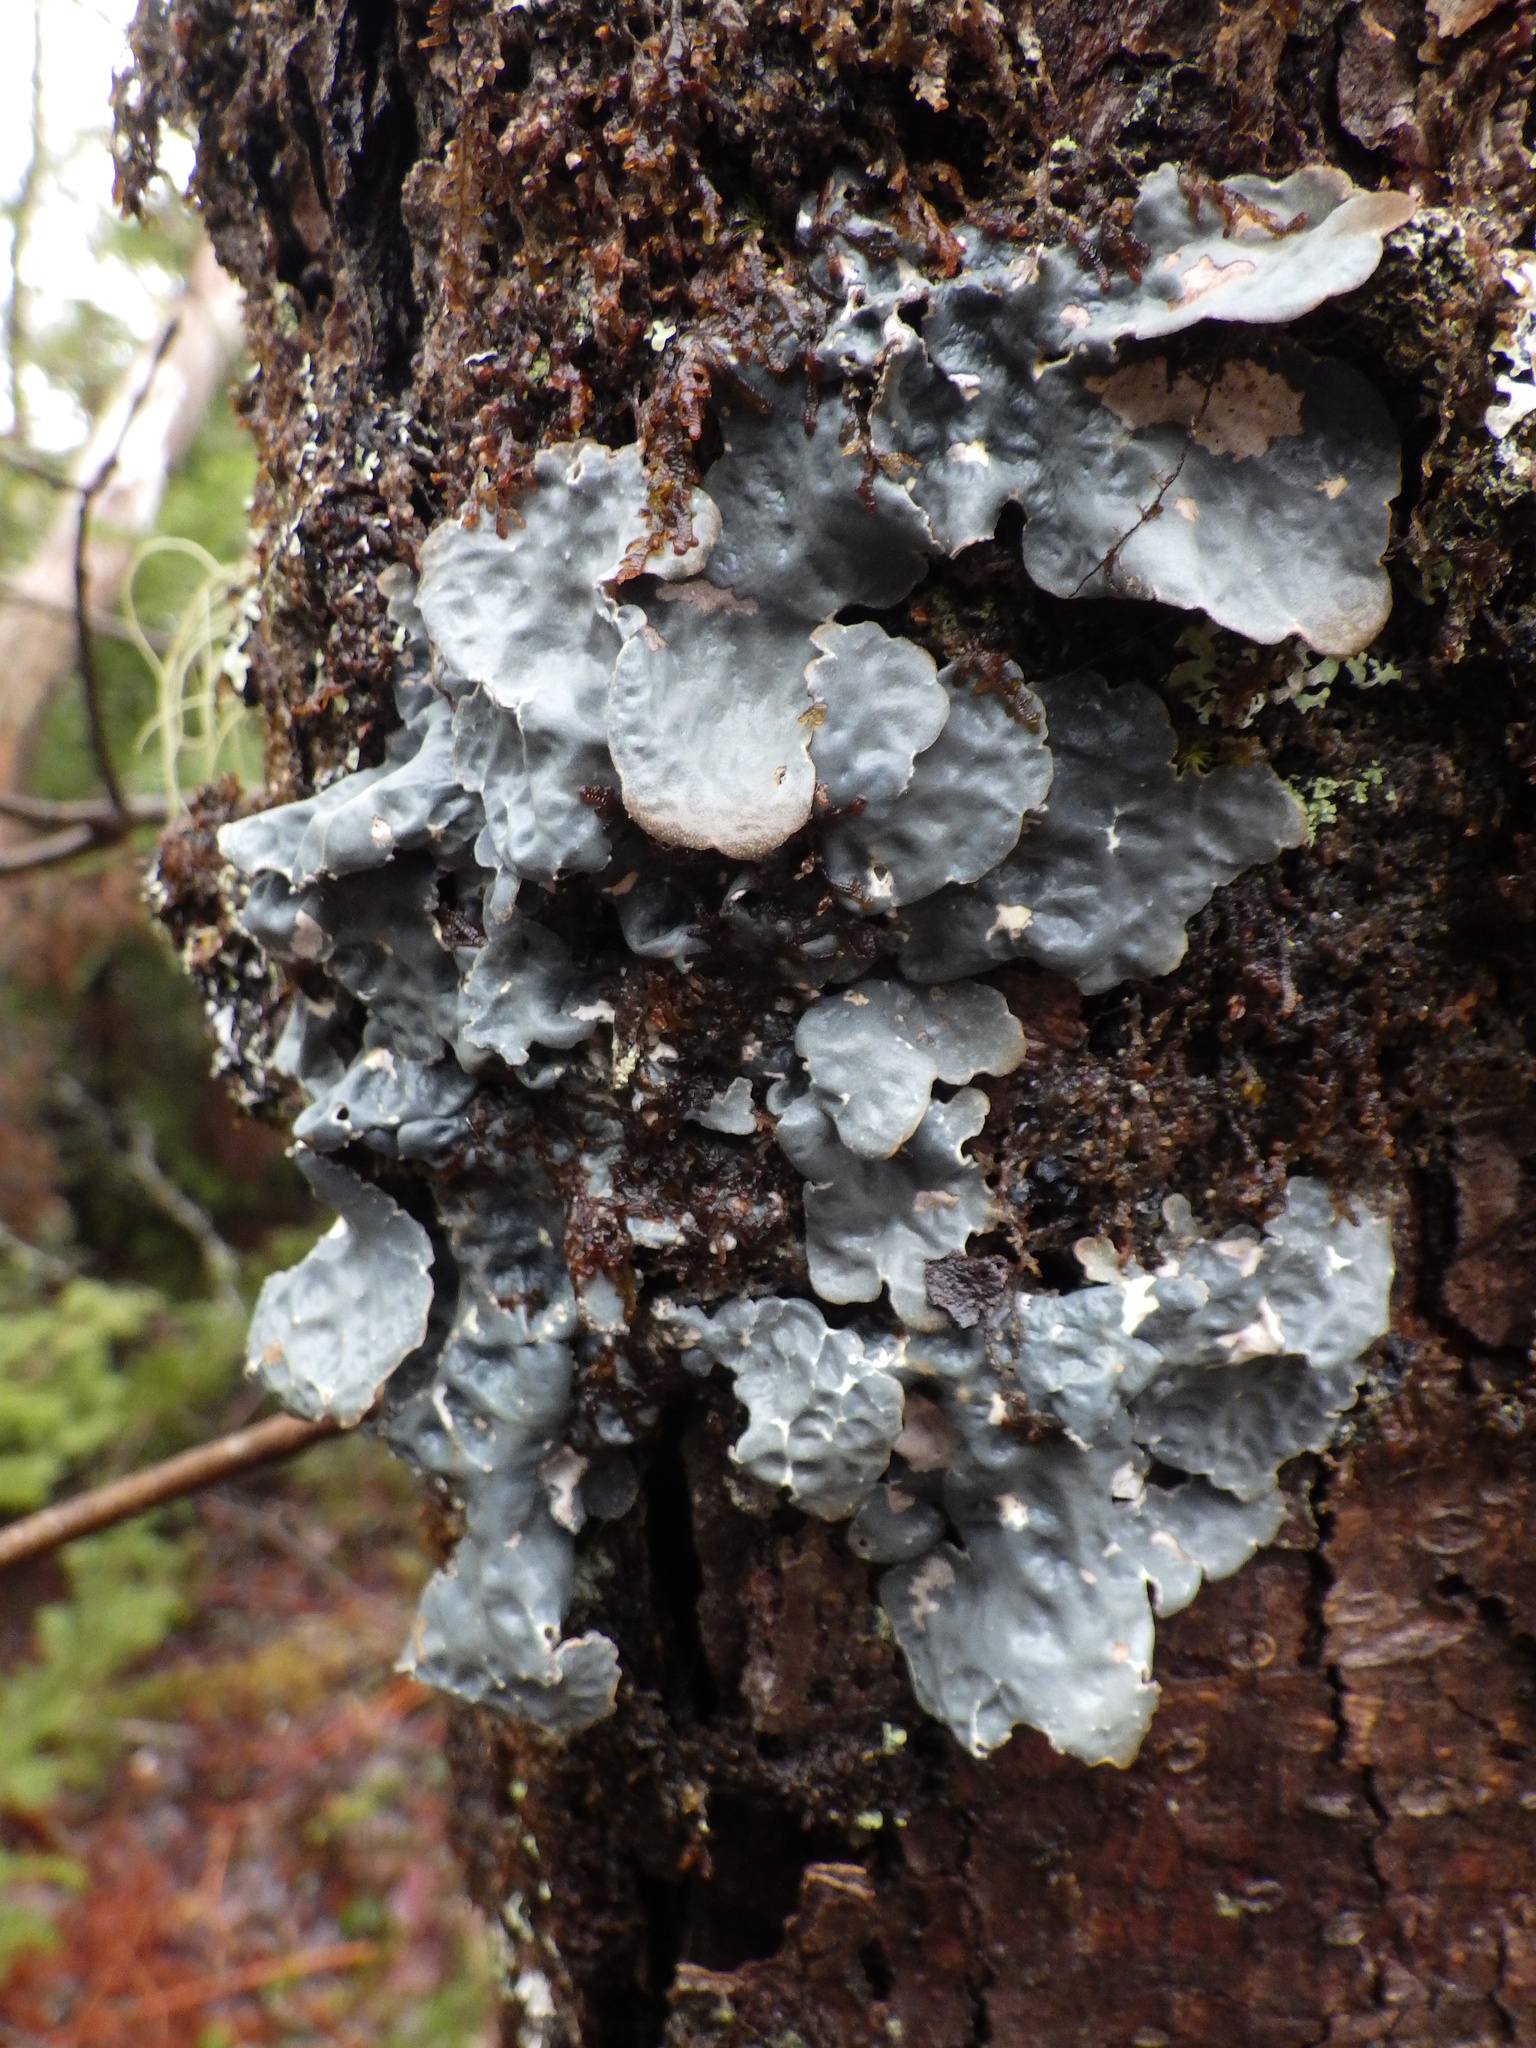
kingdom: Fungi
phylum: Ascomycota
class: Lecanoromycetes
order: Peltigerales
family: Lobariaceae
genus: Lobarina
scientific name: Lobarina scrobiculata
